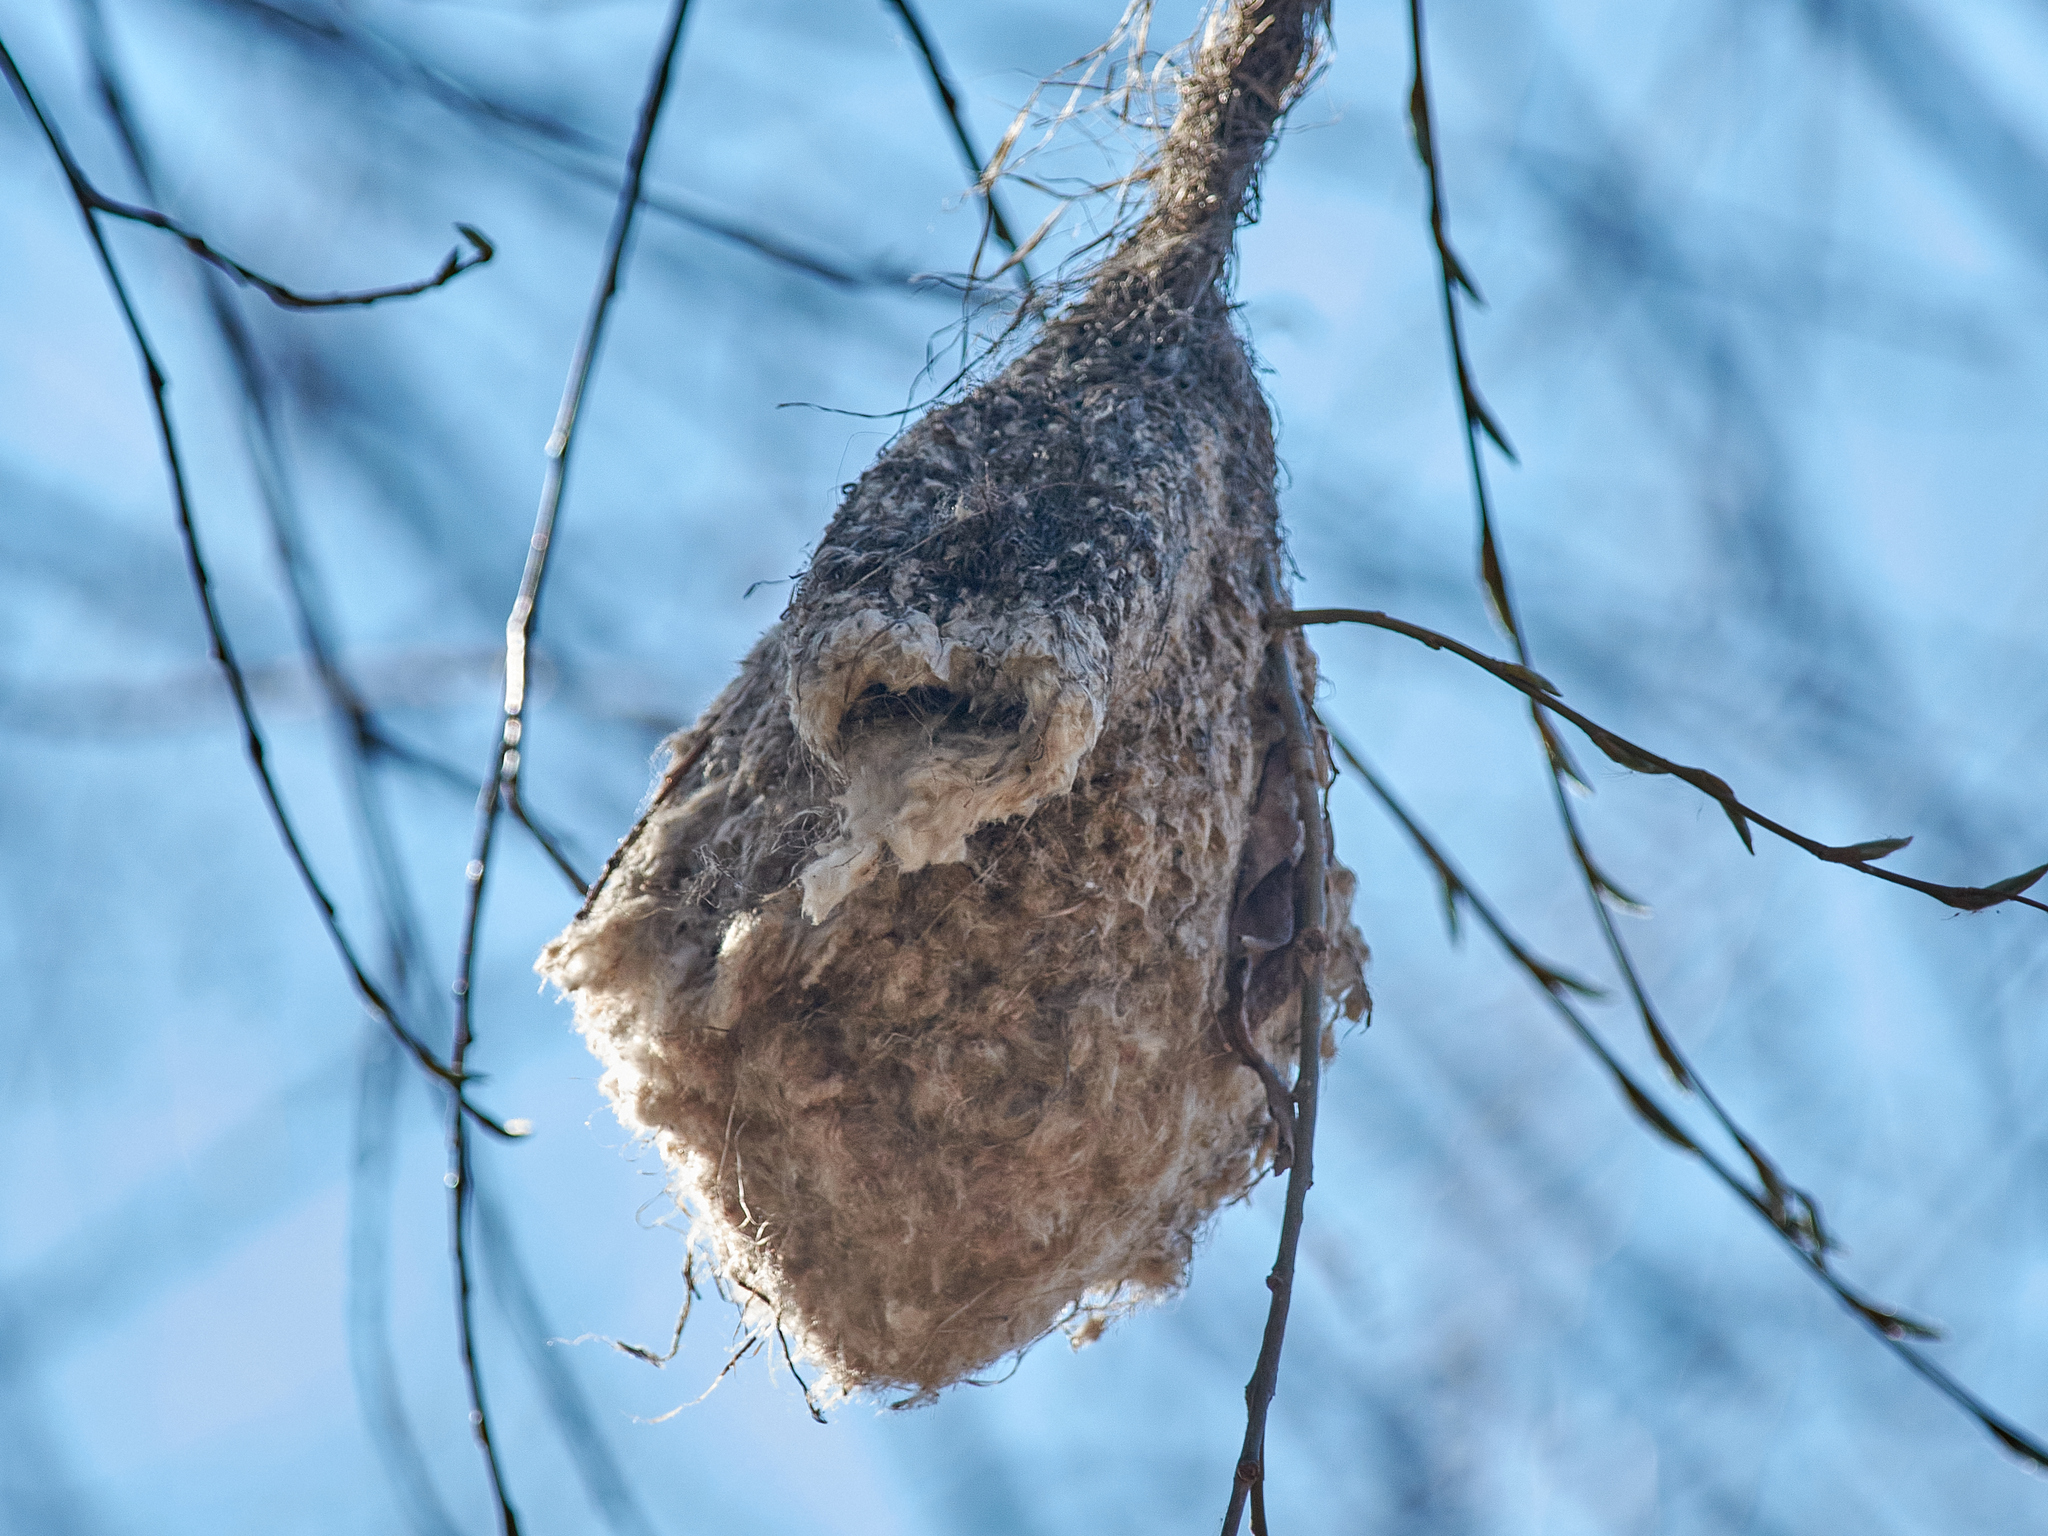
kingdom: Animalia
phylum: Chordata
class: Aves
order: Passeriformes
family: Remizidae
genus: Remiz
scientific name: Remiz pendulinus
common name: Eurasian penduline tit
